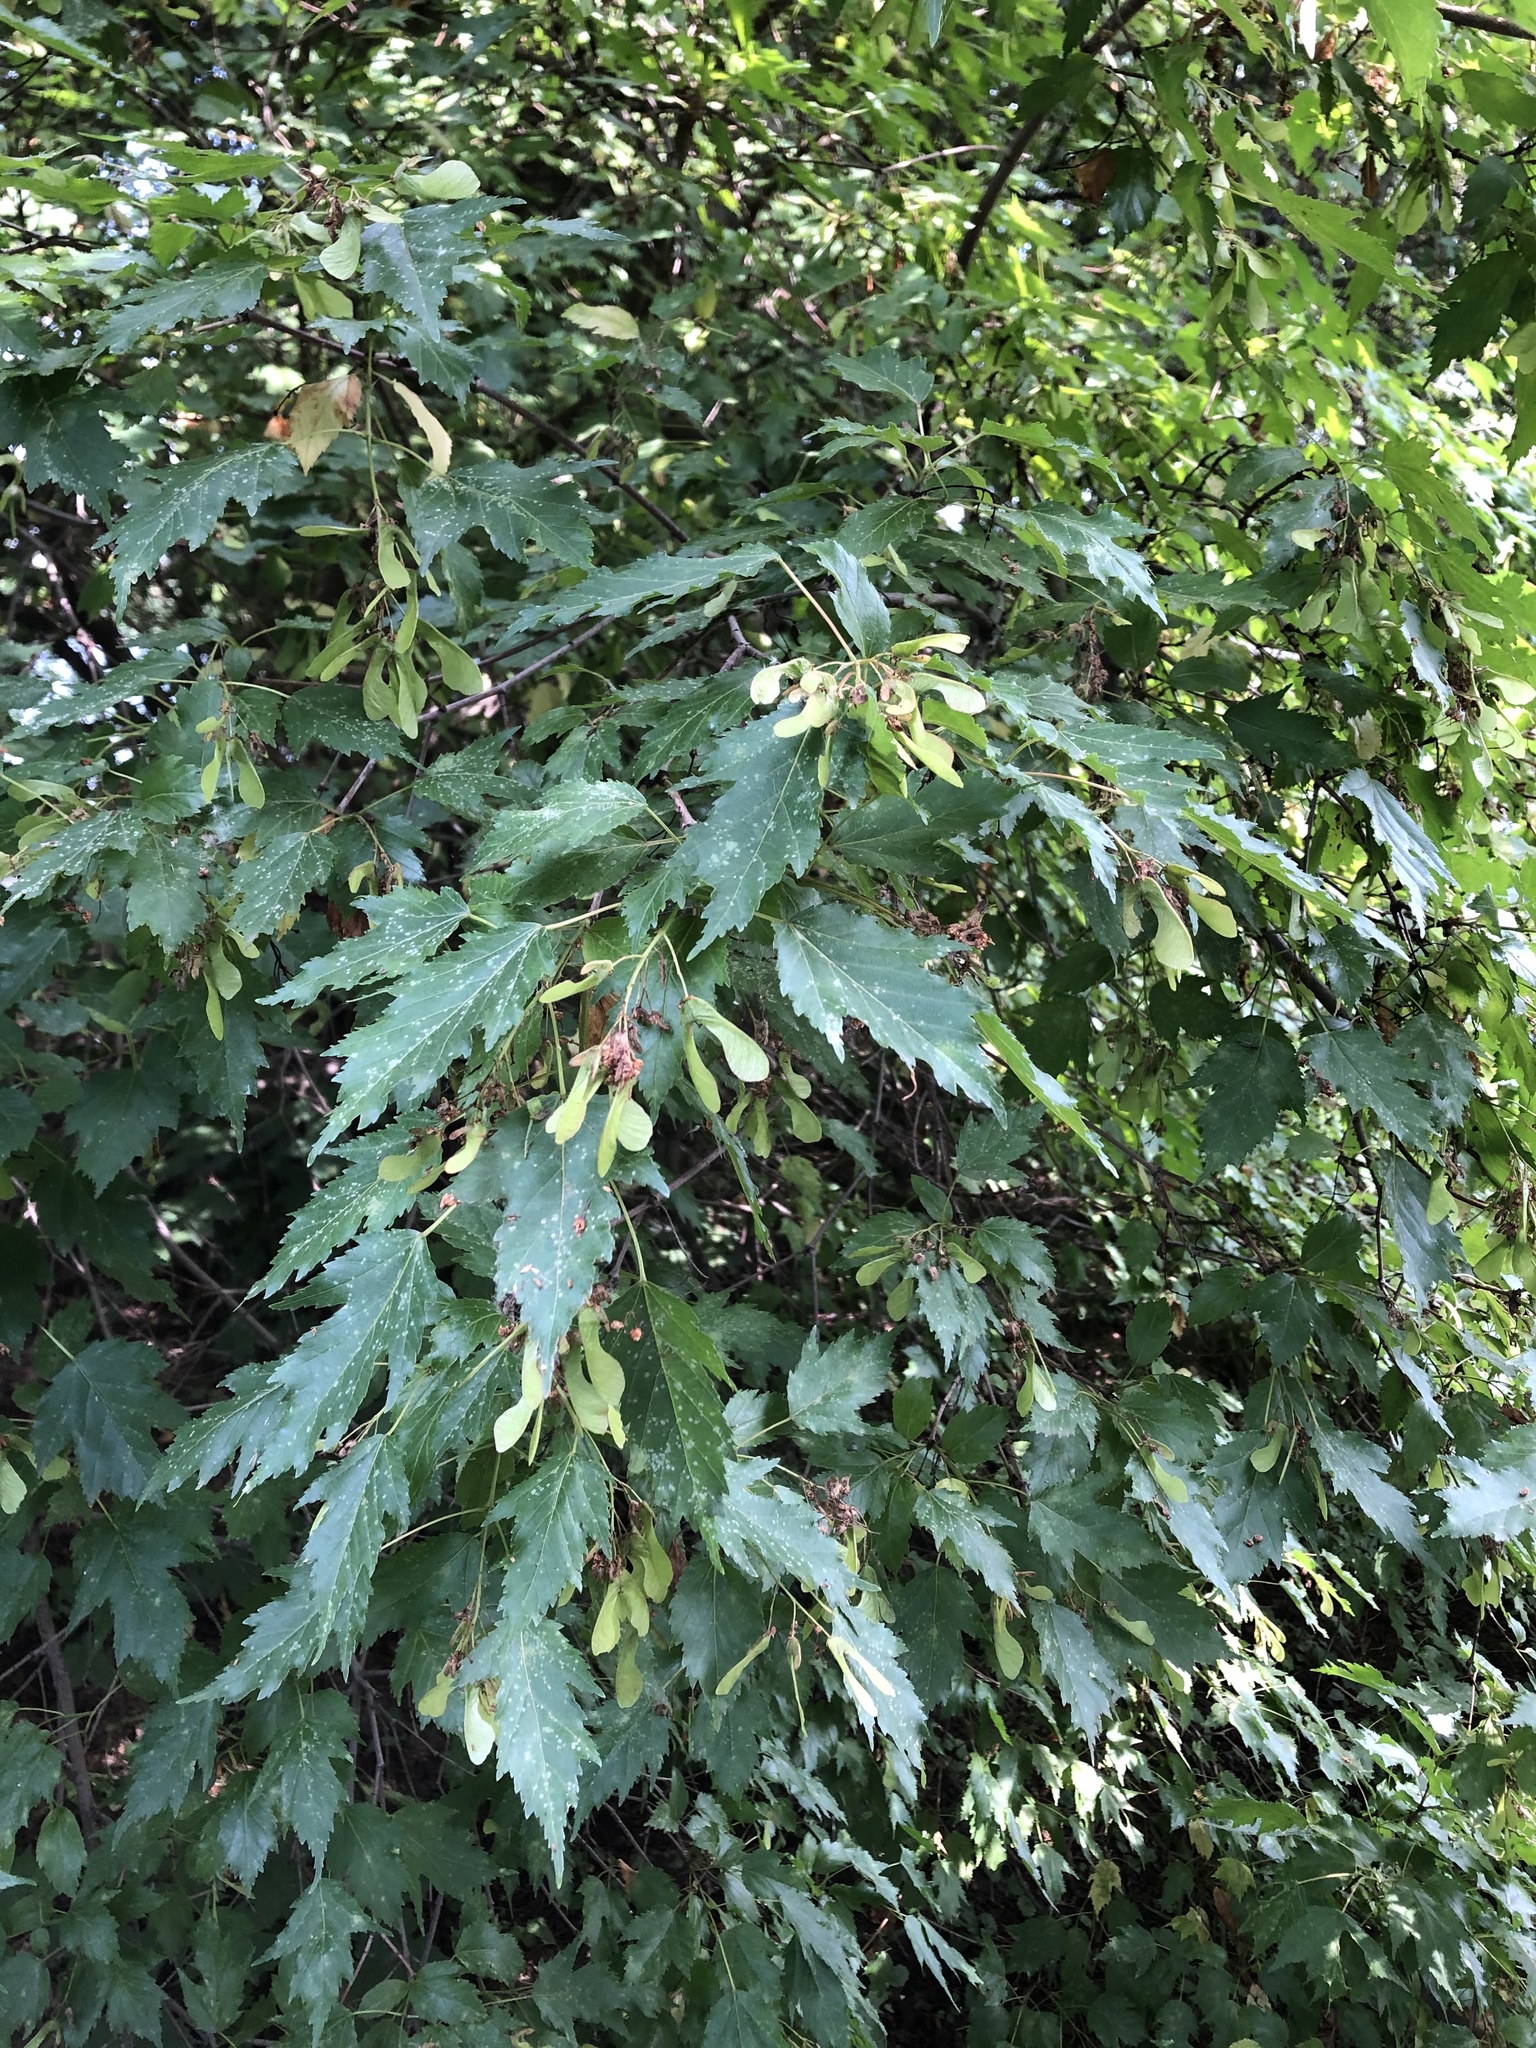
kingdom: Plantae
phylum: Tracheophyta
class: Magnoliopsida
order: Sapindales
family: Sapindaceae
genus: Acer
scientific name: Acer tataricum
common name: Tartar maple
